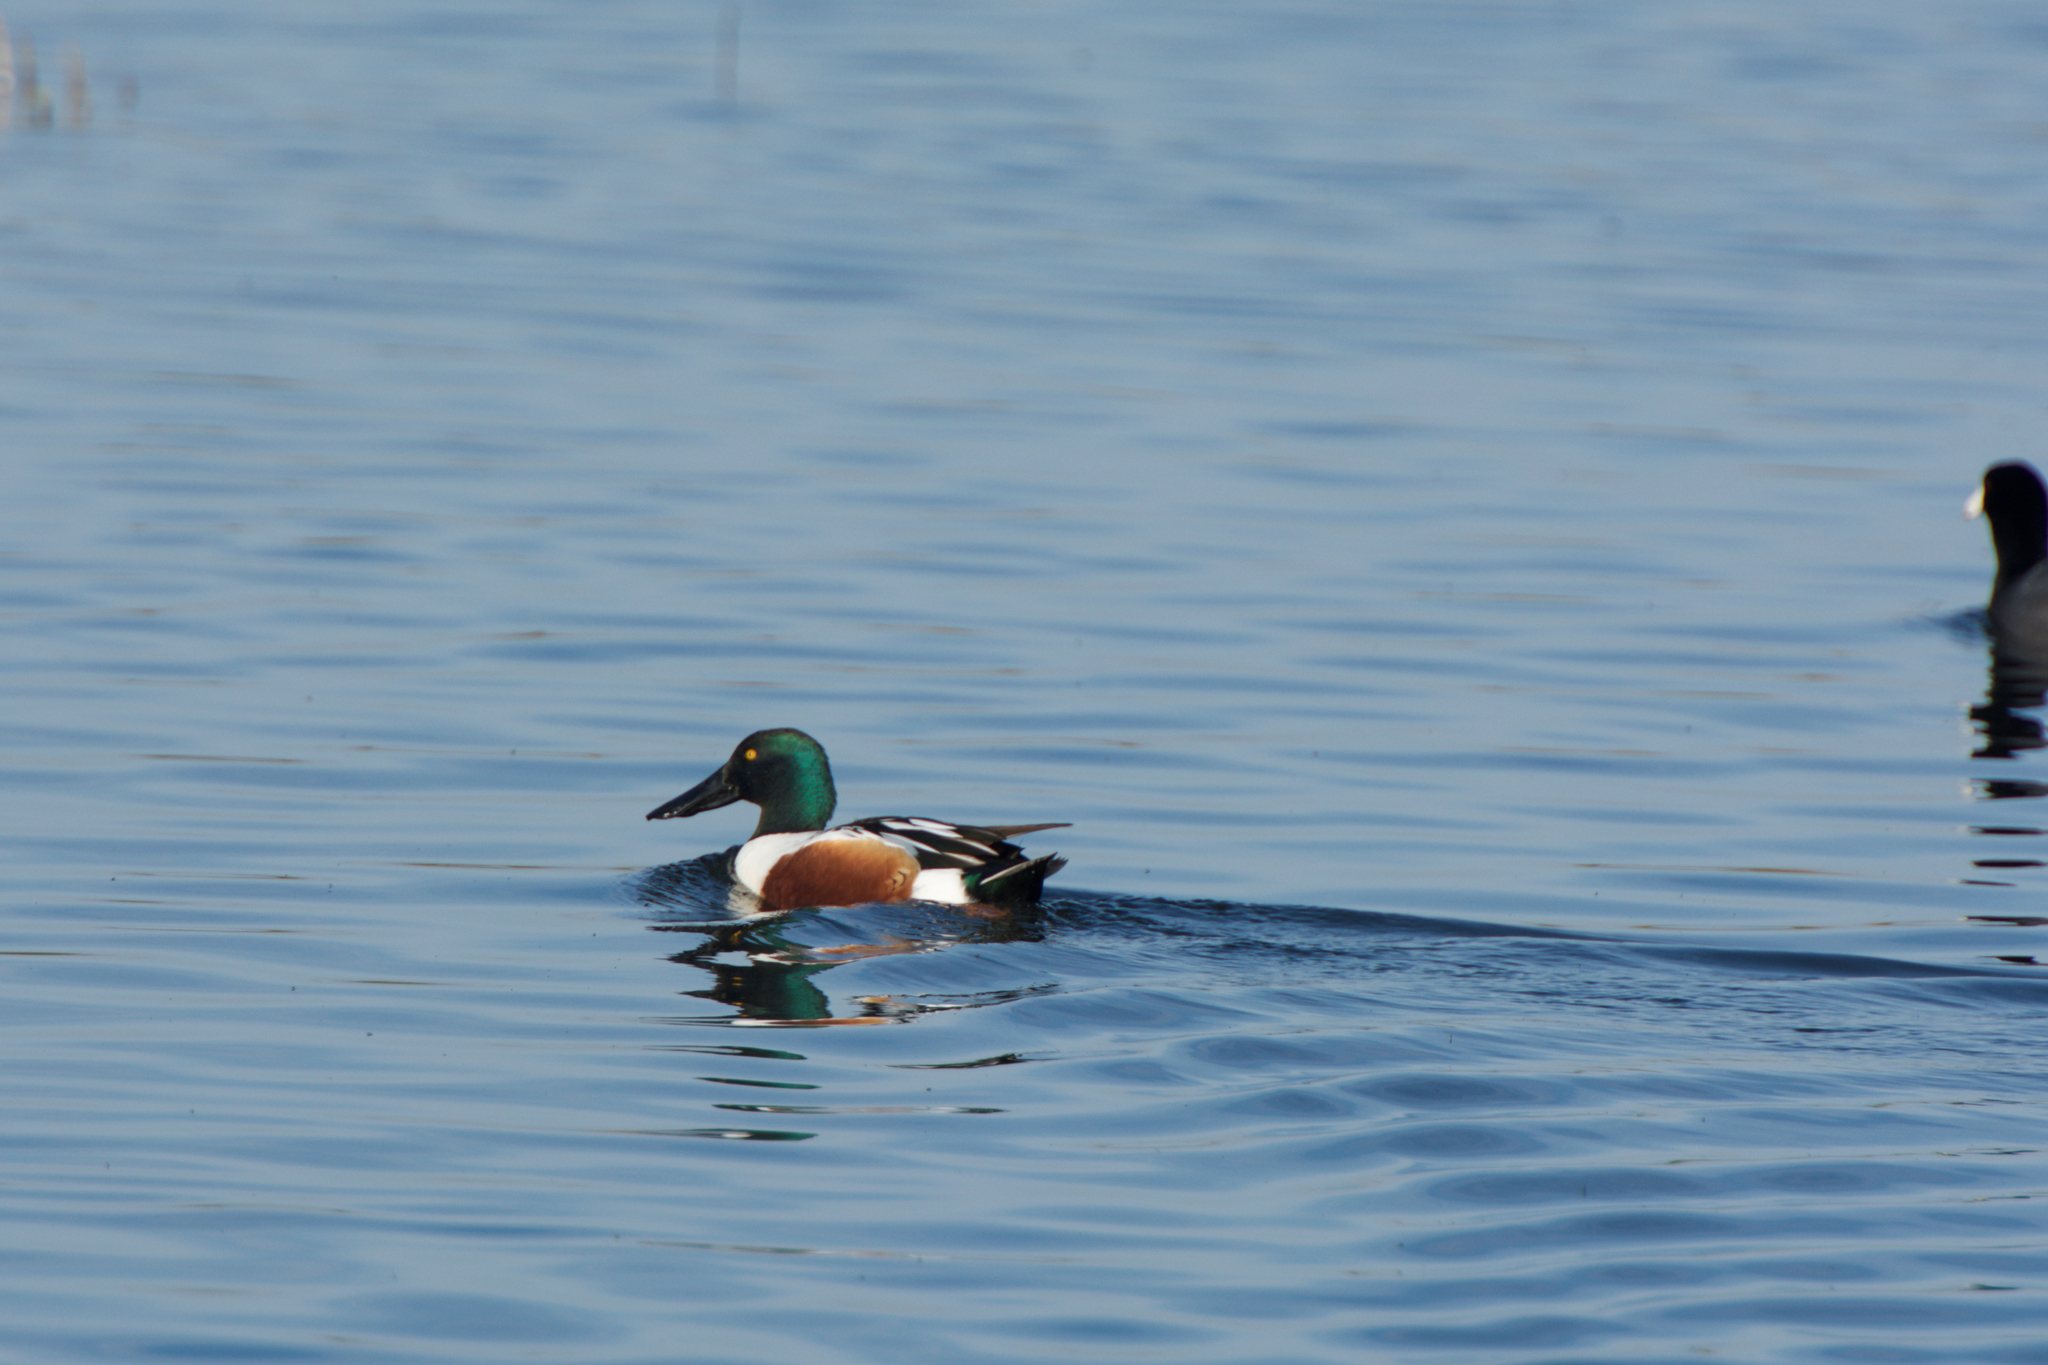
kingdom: Animalia
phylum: Chordata
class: Aves
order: Anseriformes
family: Anatidae
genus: Spatula
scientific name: Spatula clypeata
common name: Northern shoveler
